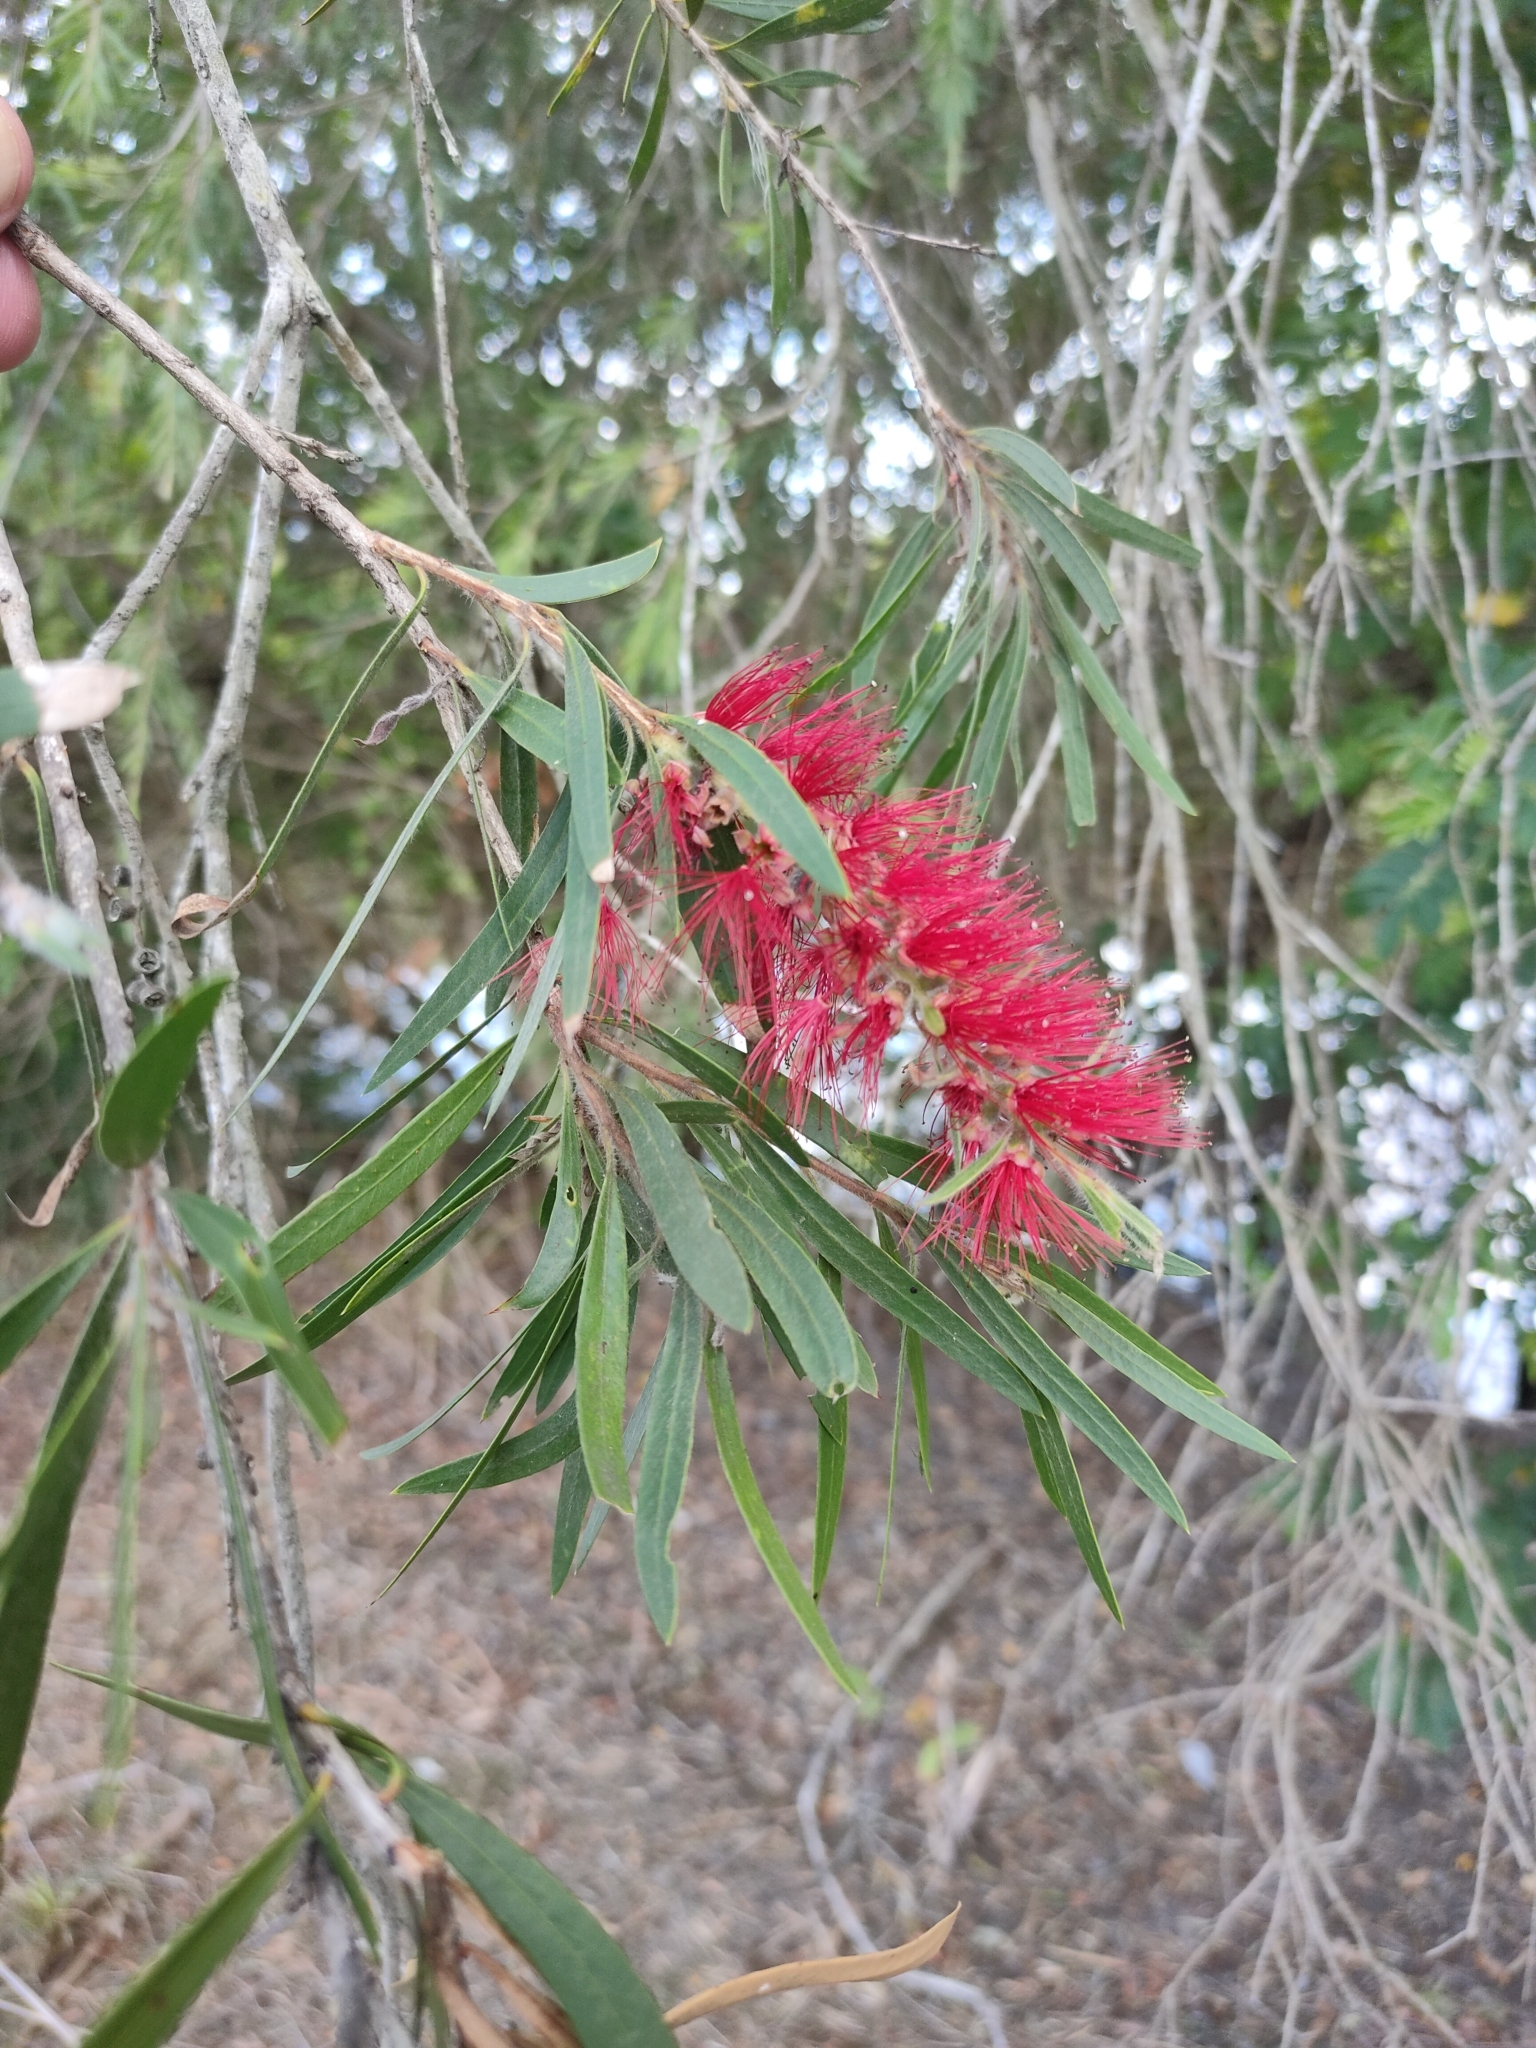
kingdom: Plantae
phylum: Tracheophyta
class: Magnoliopsida
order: Myrtales
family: Myrtaceae
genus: Callistemon
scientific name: Callistemon viminalis
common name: Drooping bottlebrush
